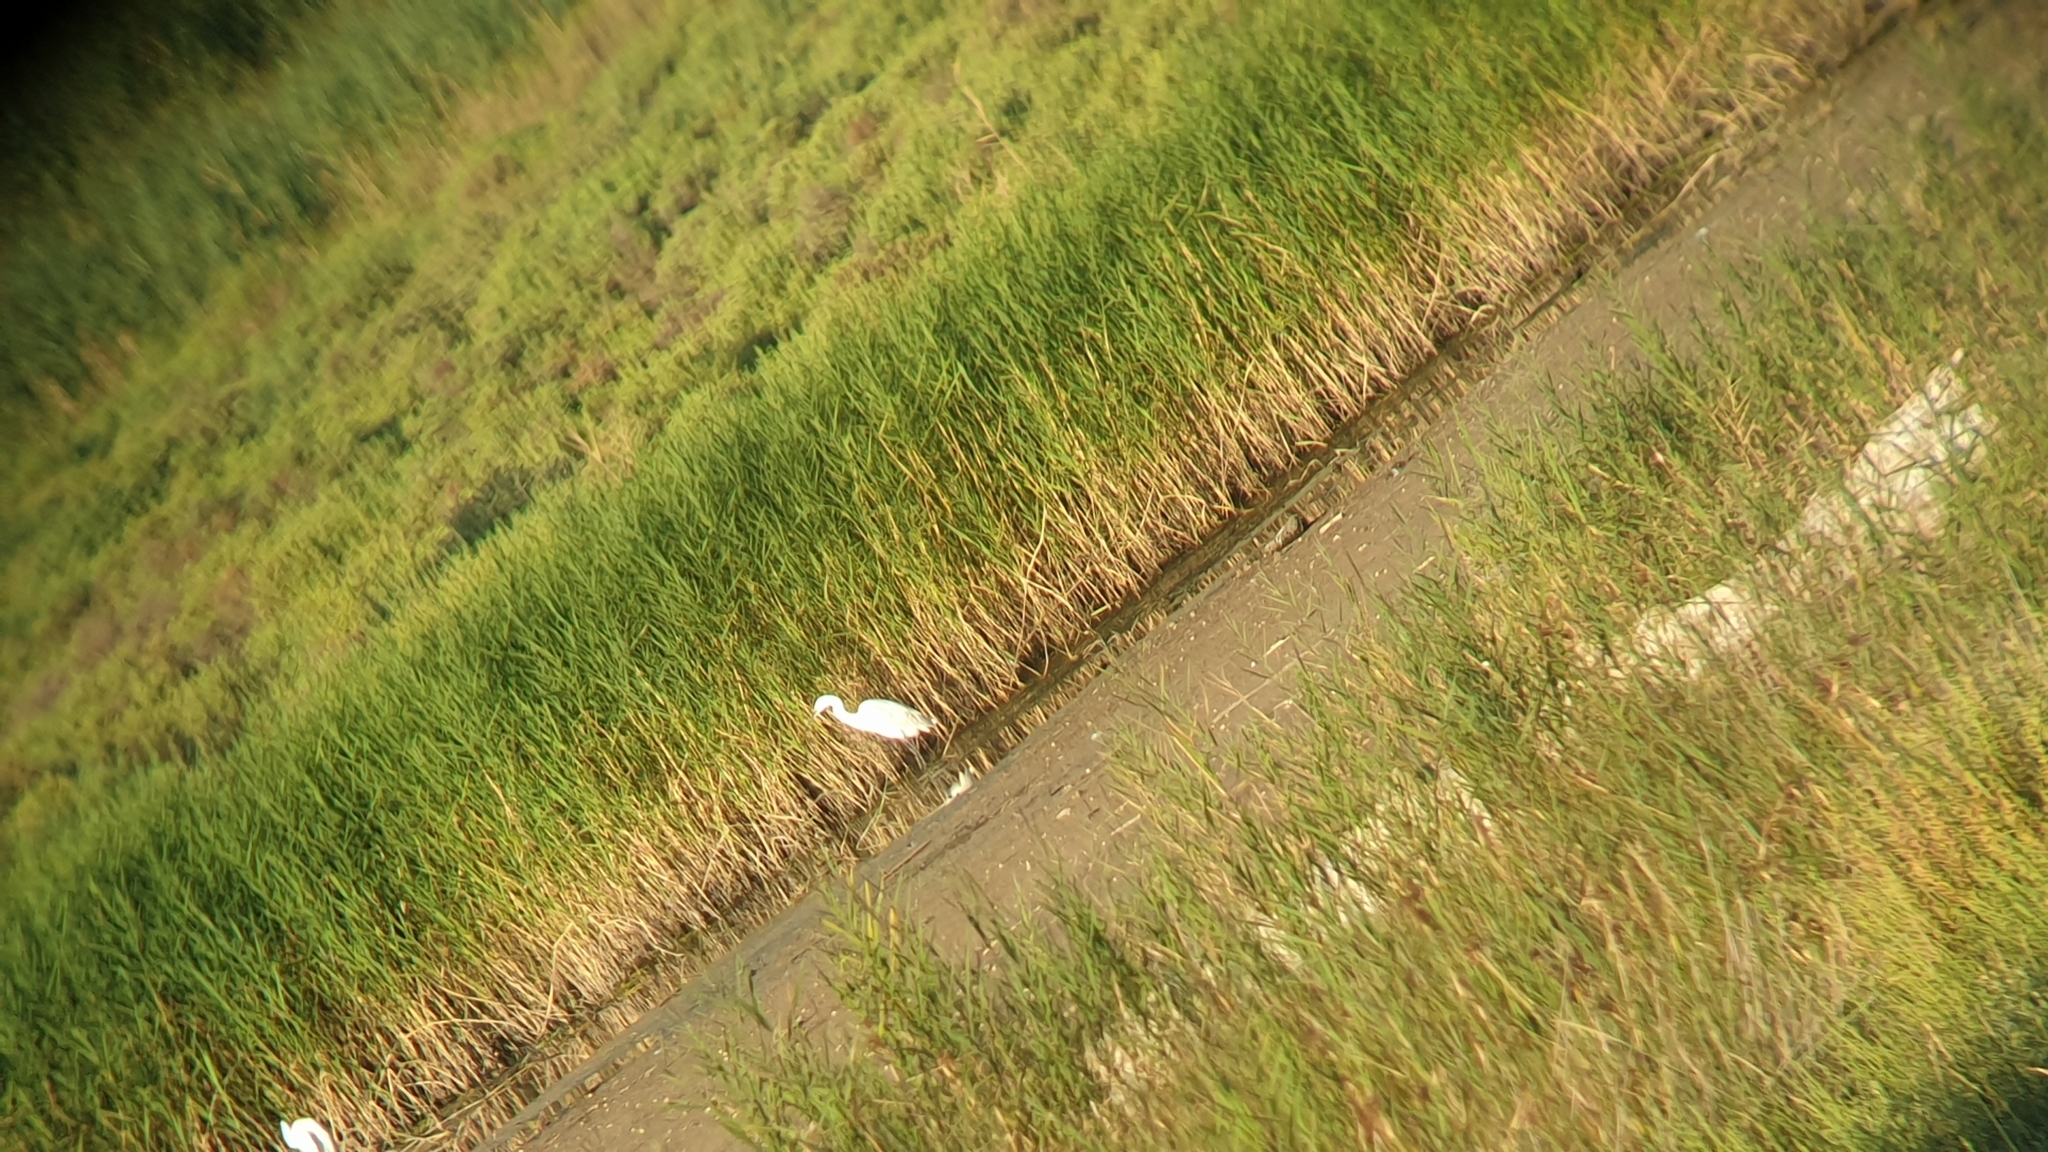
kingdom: Animalia
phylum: Chordata
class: Aves
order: Pelecaniformes
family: Ardeidae
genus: Egretta
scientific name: Egretta garzetta
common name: Little egret
